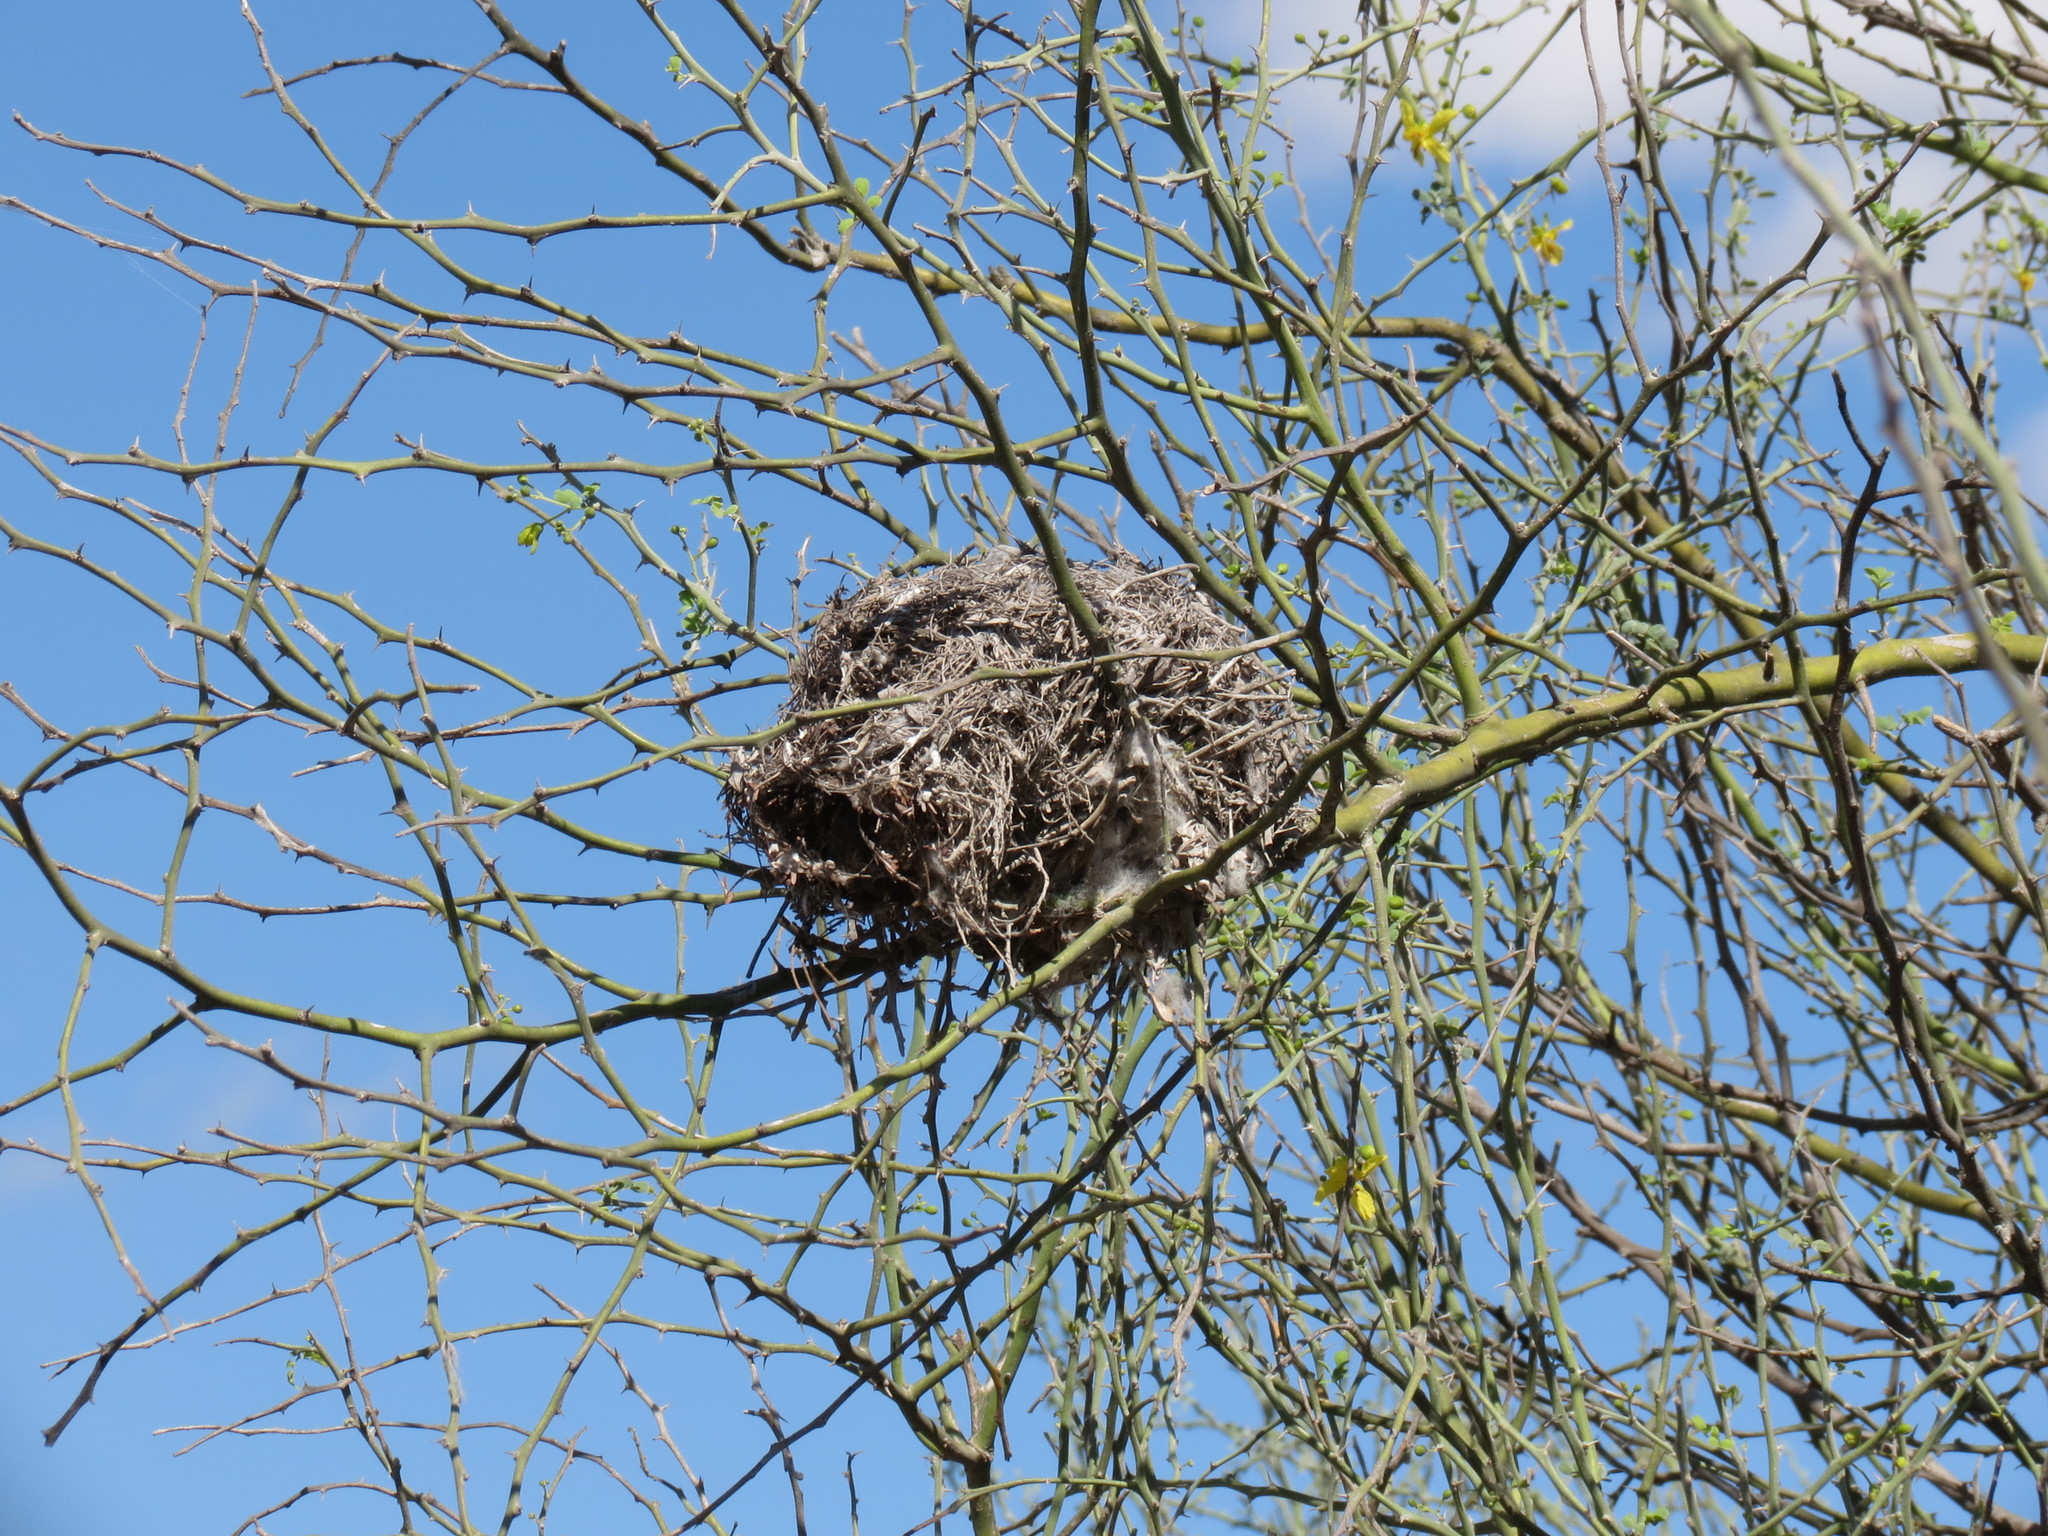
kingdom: Animalia
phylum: Chordata
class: Aves
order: Passeriformes
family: Remizidae
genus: Auriparus
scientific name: Auriparus flaviceps
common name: Verdin
